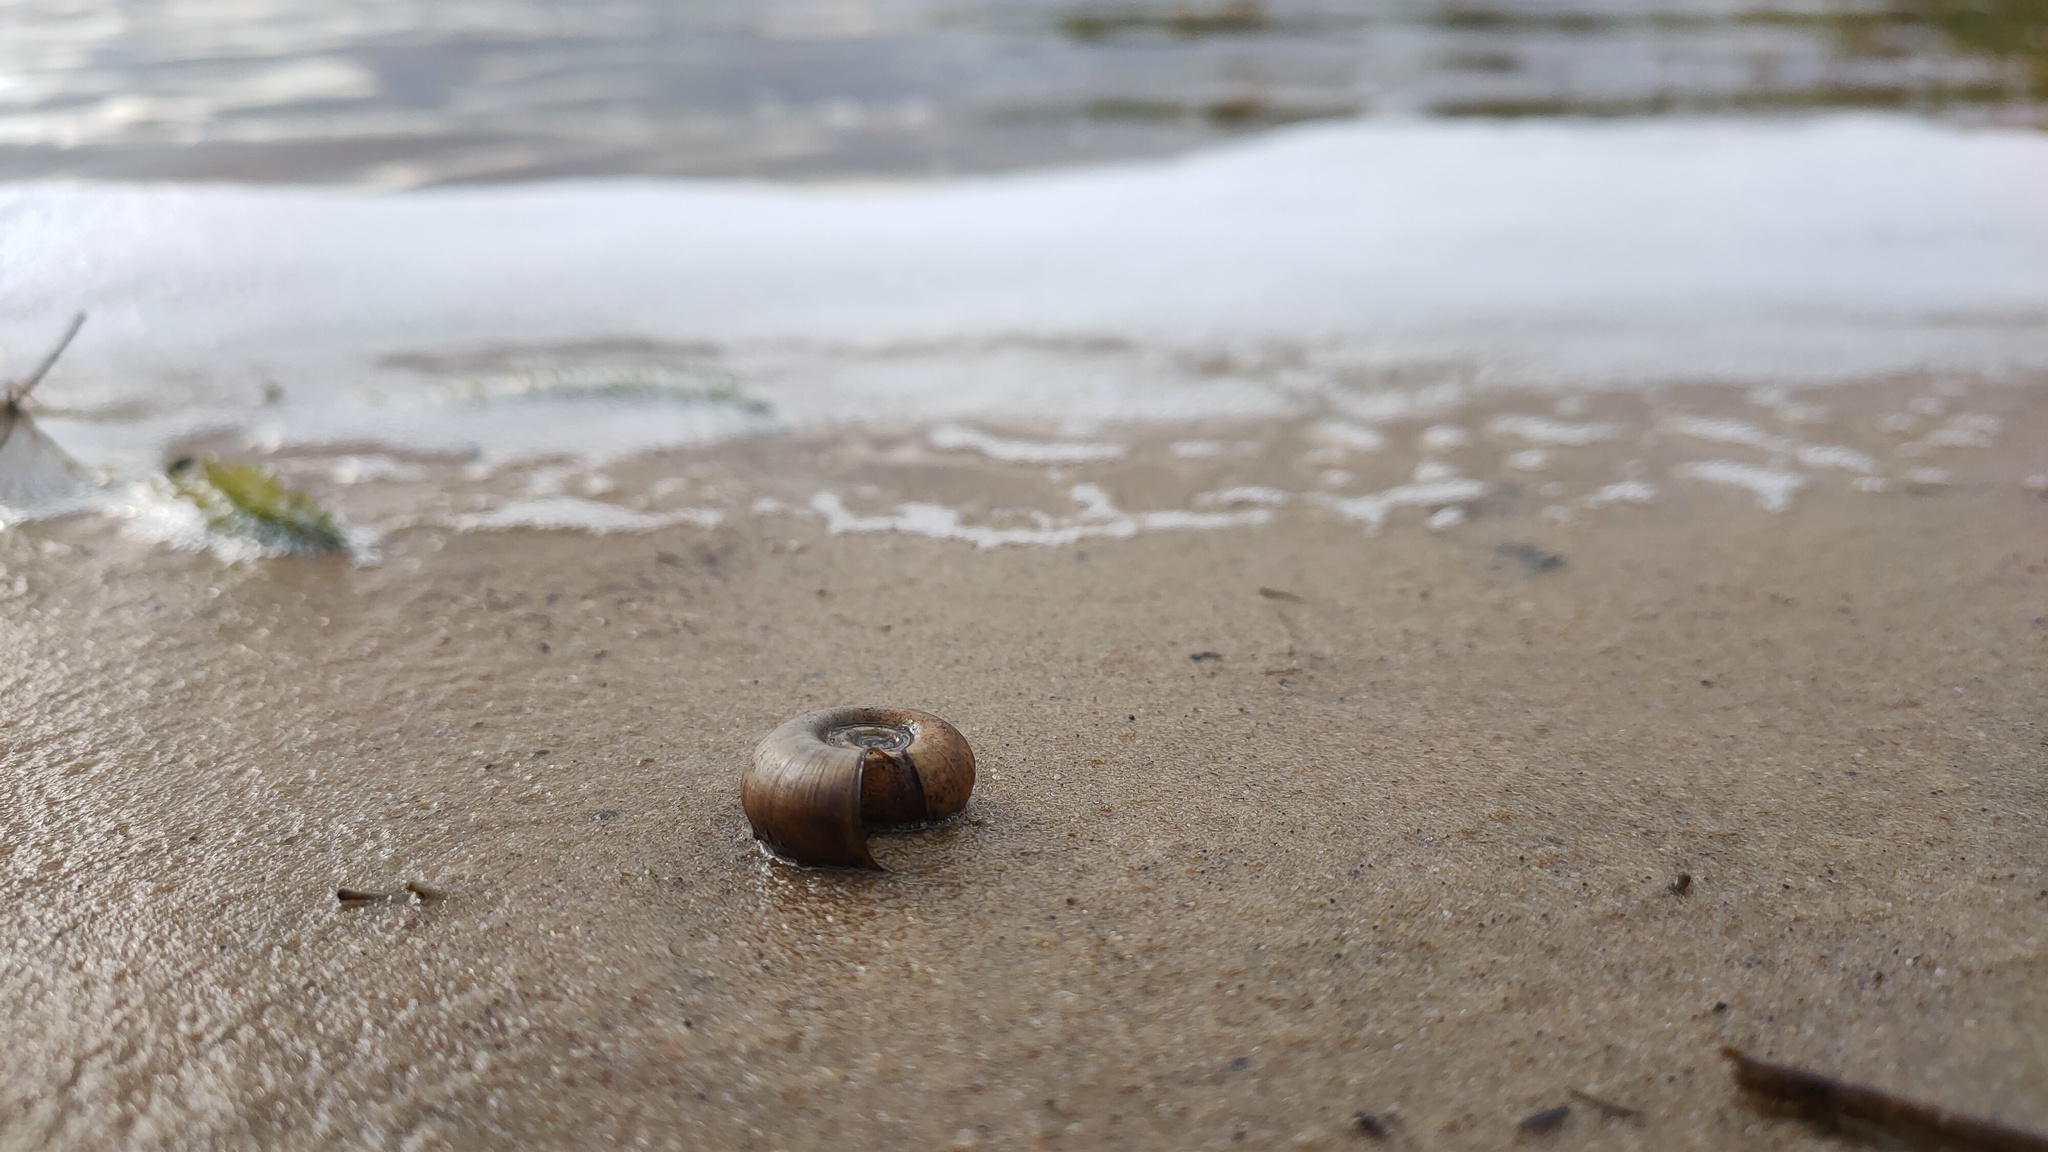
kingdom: Animalia
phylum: Mollusca
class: Gastropoda
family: Planorbidae
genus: Planorbarius
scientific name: Planorbarius corneus
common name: Great ramshorn
